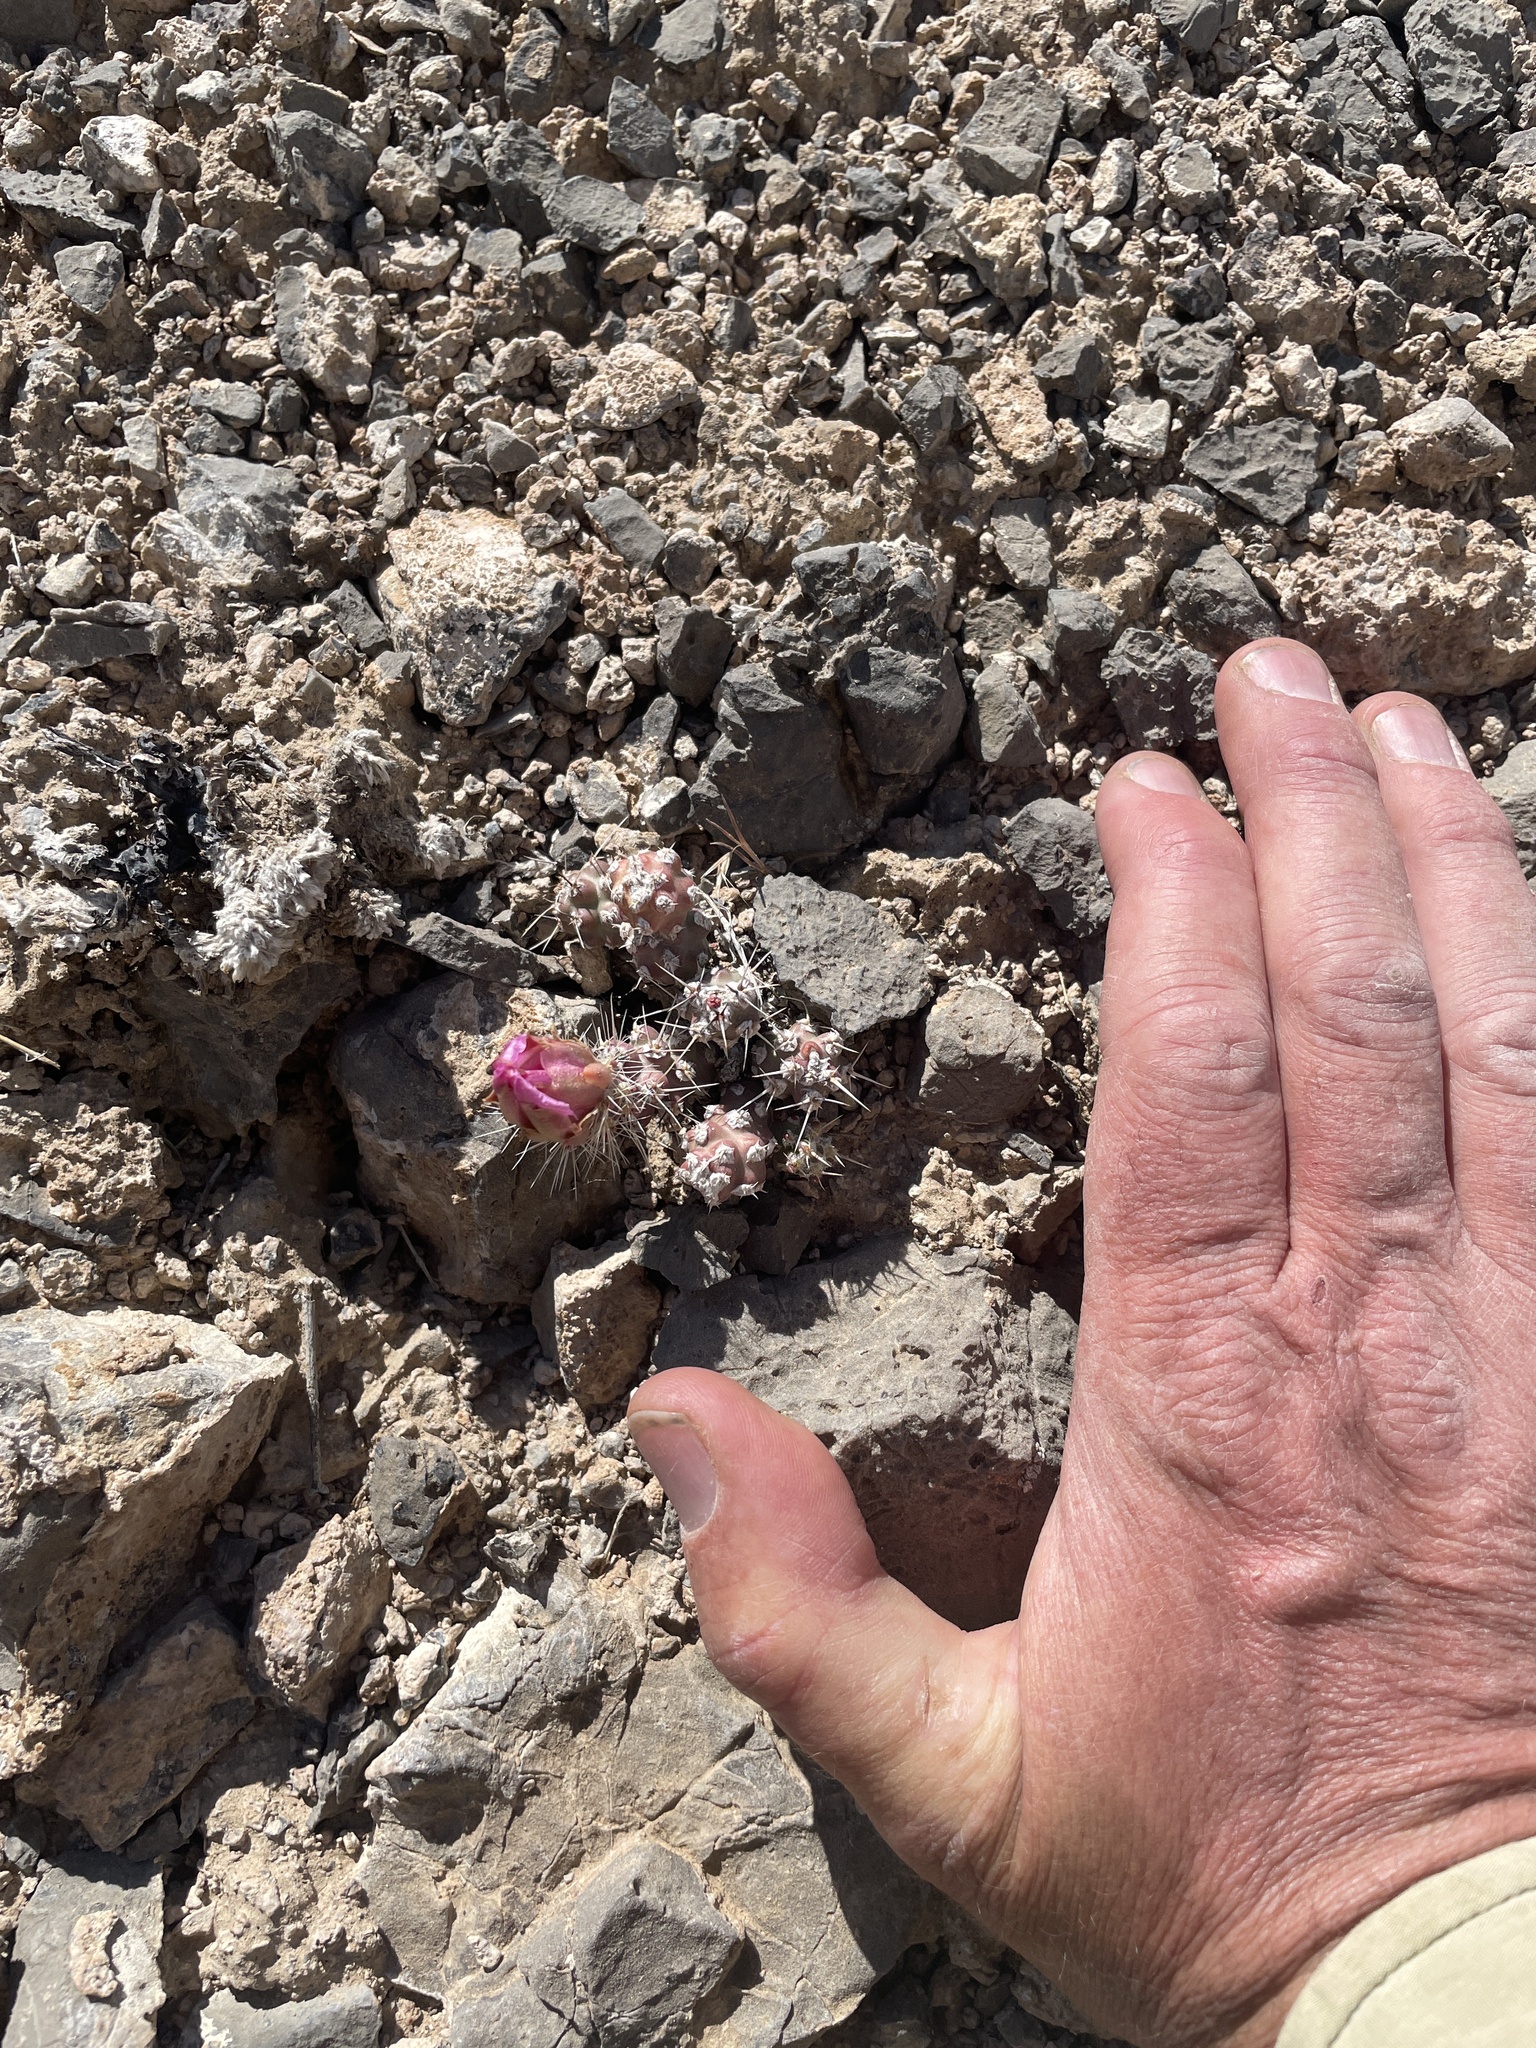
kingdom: Plantae
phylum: Tracheophyta
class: Magnoliopsida
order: Caryophyllales
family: Cactaceae
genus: Micropuntia
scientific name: Micropuntia pulchella
